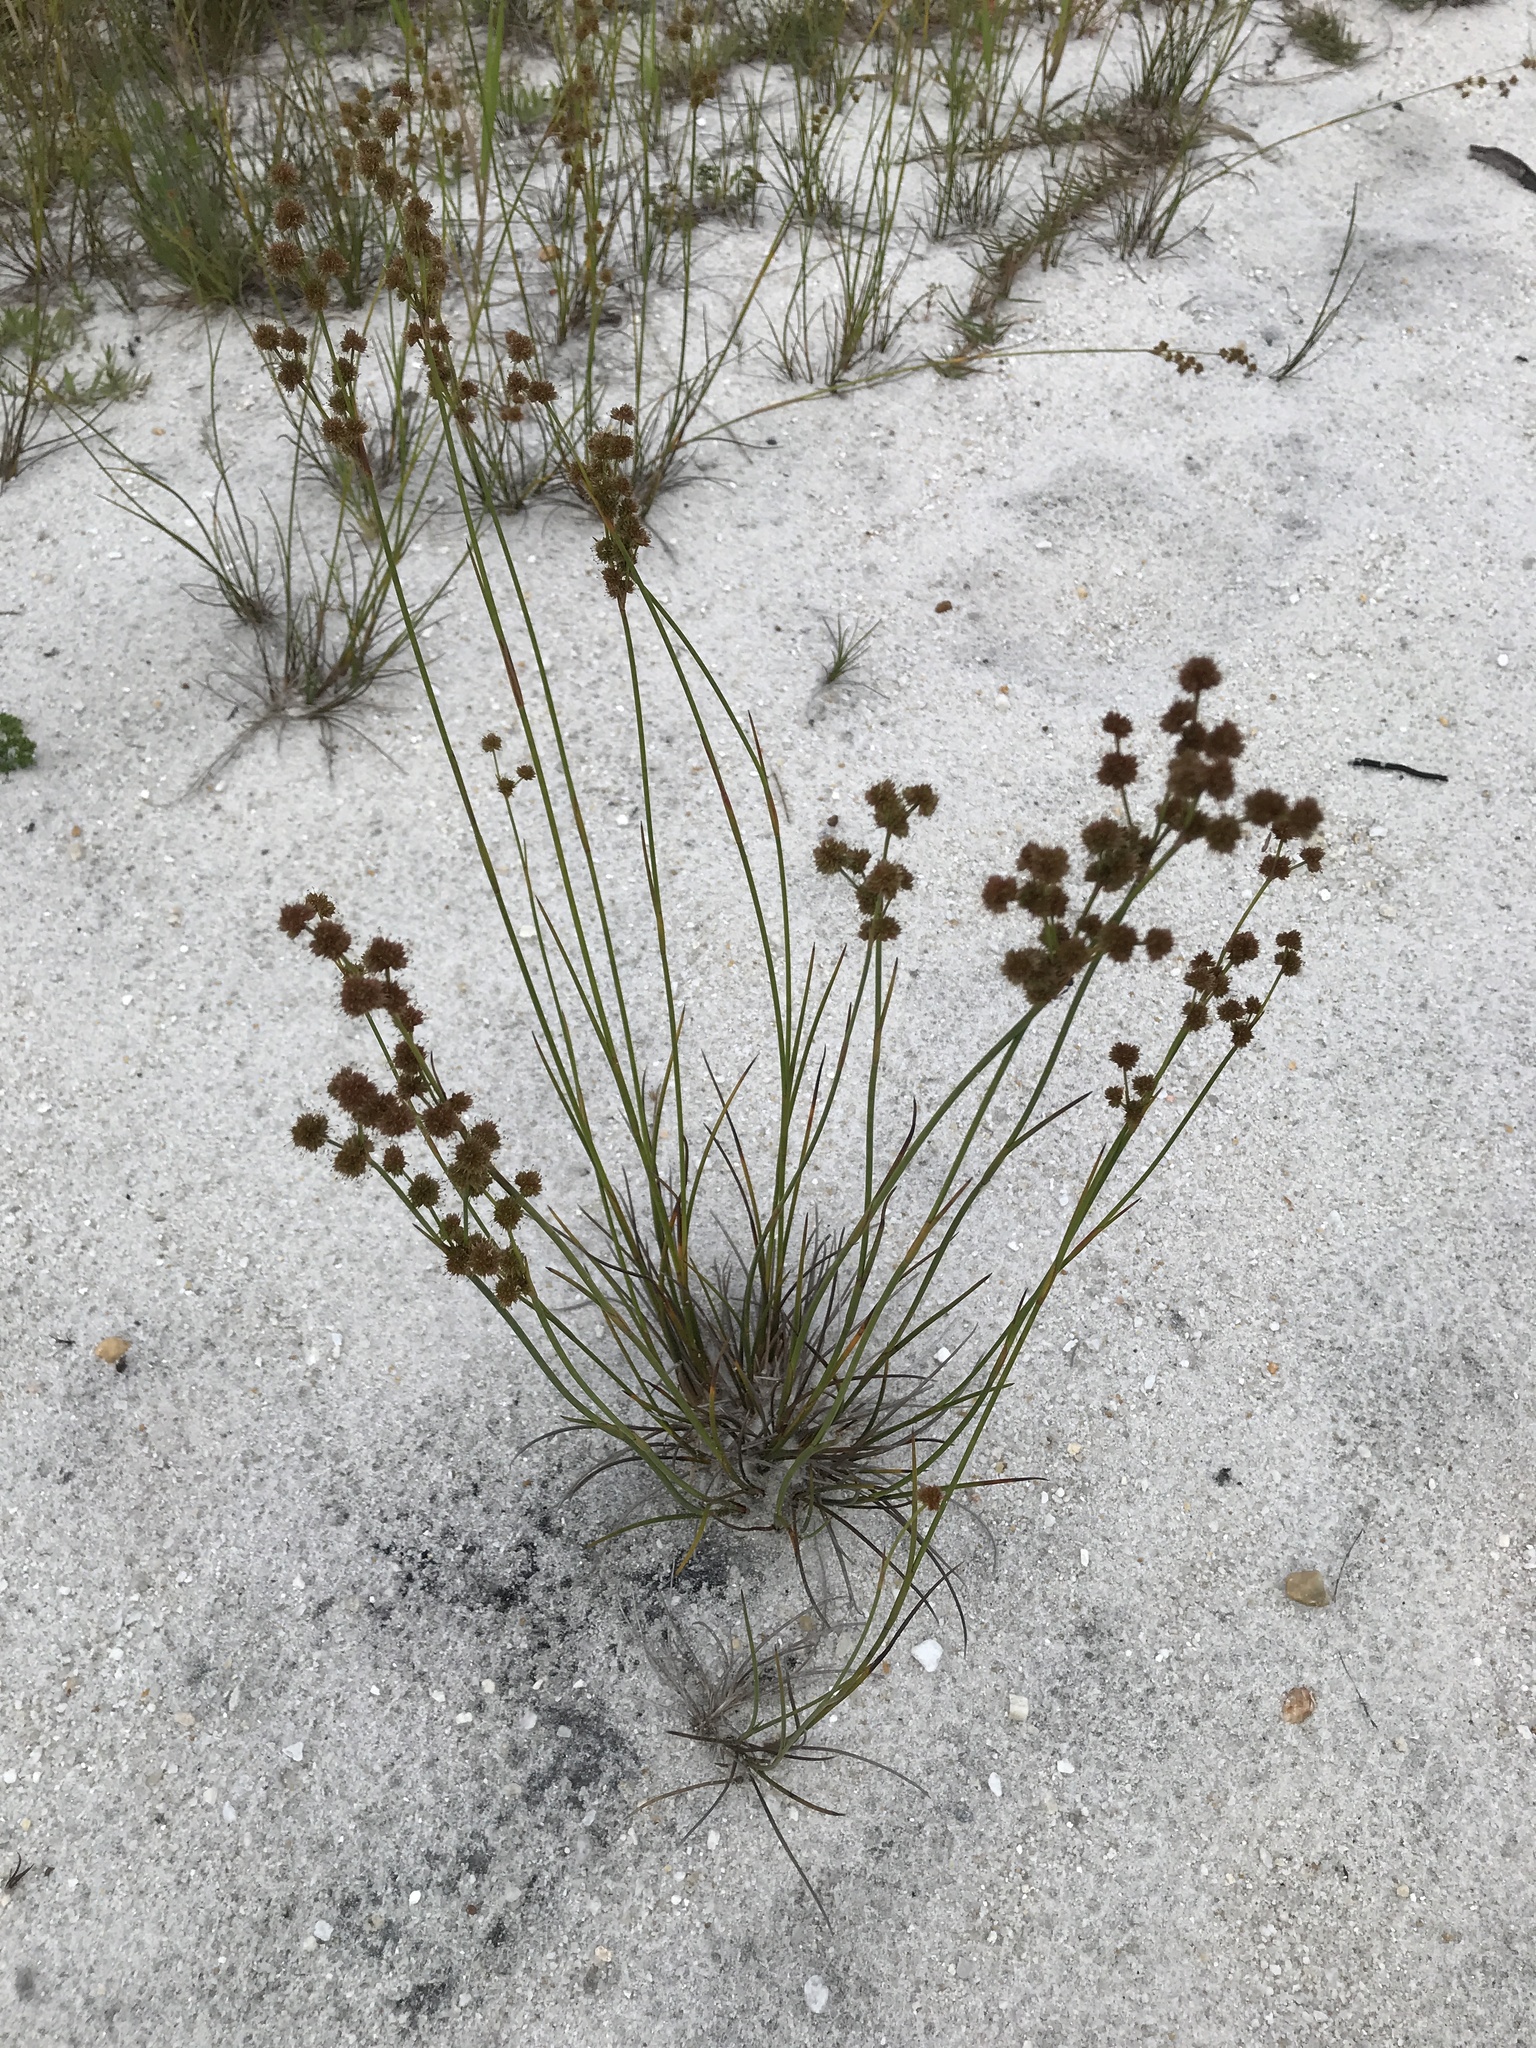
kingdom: Plantae
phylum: Tracheophyta
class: Liliopsida
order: Poales
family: Juncaceae
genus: Juncus
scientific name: Juncus scirpoides
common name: Needlepod rush
